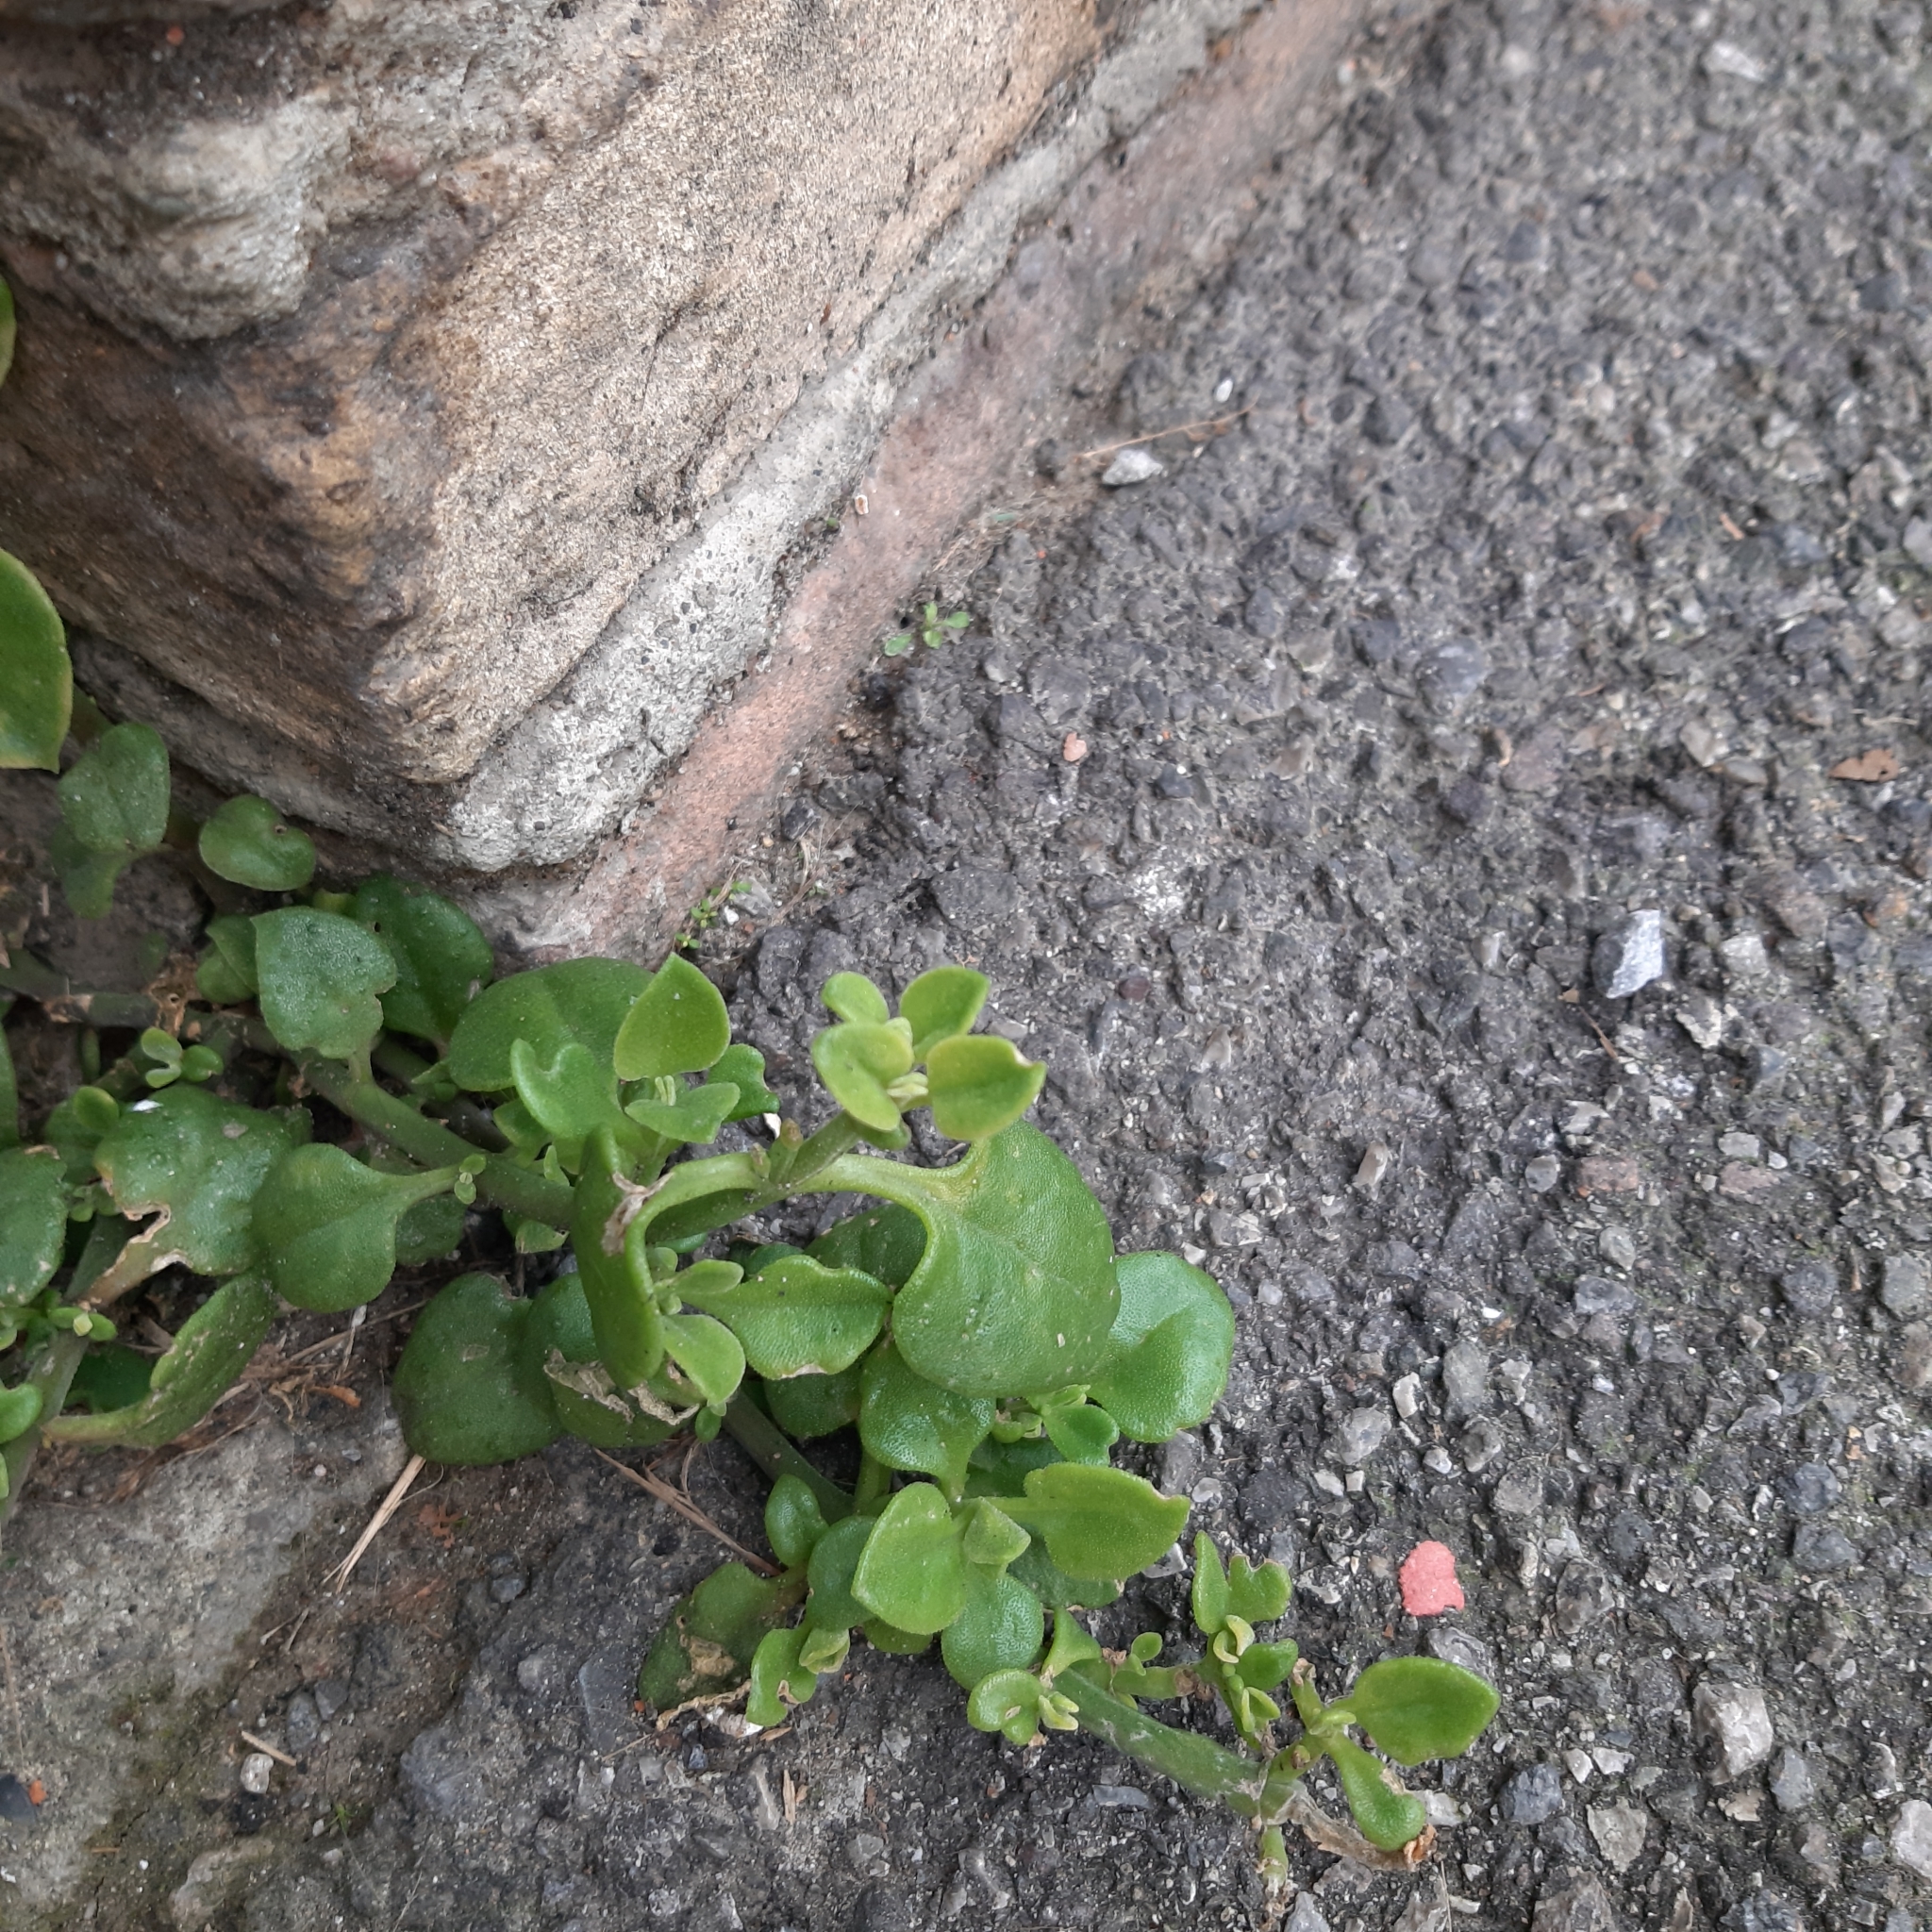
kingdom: Plantae
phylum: Tracheophyta
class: Magnoliopsida
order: Caryophyllales
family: Aizoaceae
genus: Mesembryanthemum
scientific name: Mesembryanthemum cordifolium
